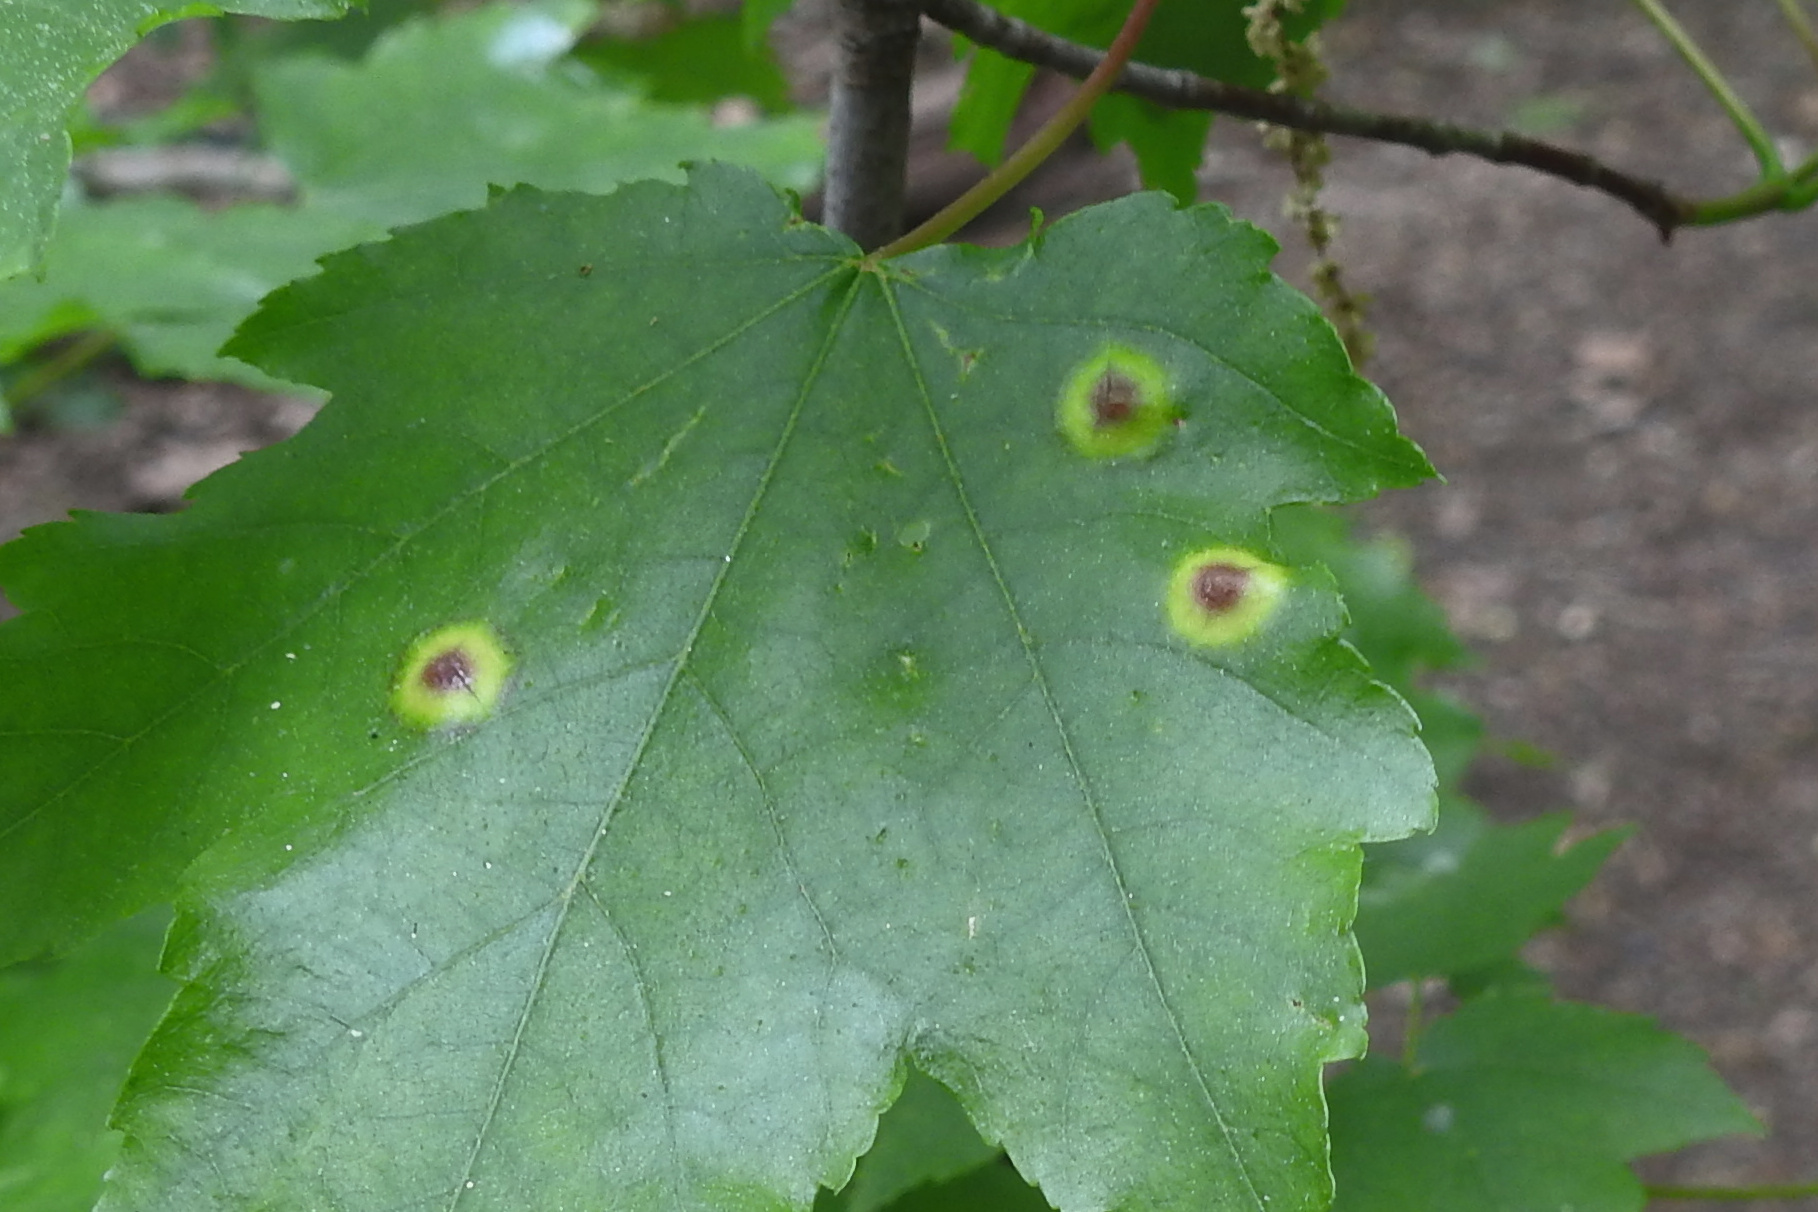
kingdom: Animalia
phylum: Arthropoda
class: Insecta
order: Diptera
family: Cecidomyiidae
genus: Acericecis
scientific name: Acericecis ocellaris
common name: Ocellate gall midge
